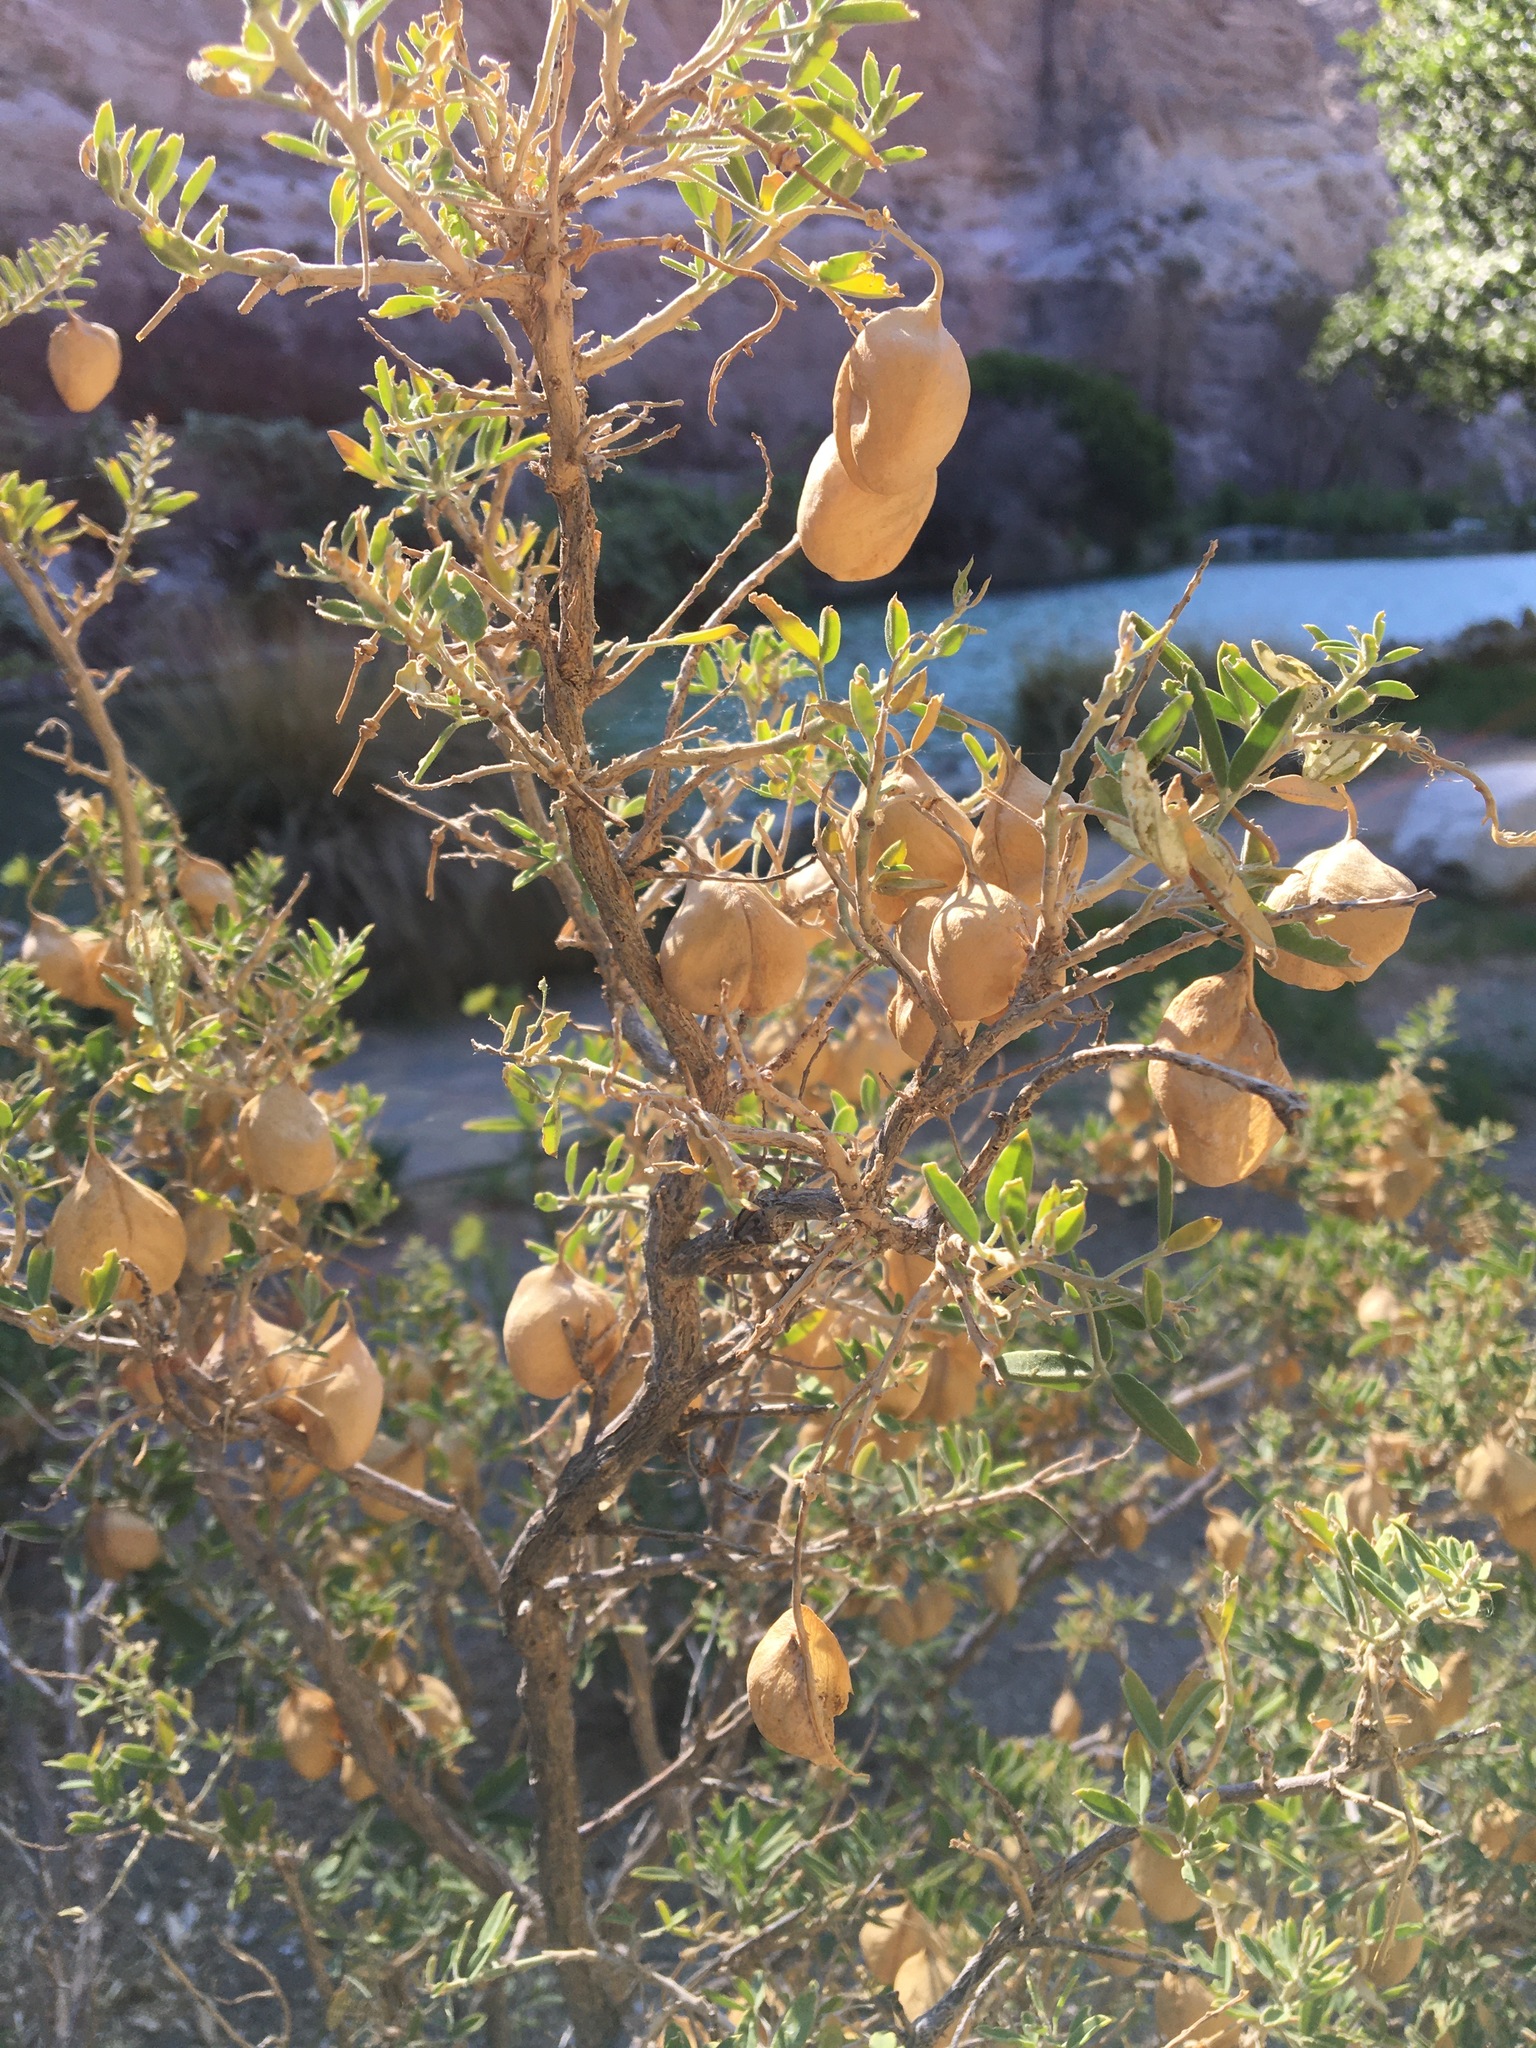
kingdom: Plantae
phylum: Tracheophyta
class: Magnoliopsida
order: Brassicales
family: Cleomaceae
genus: Cleomella
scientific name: Cleomella arborea
